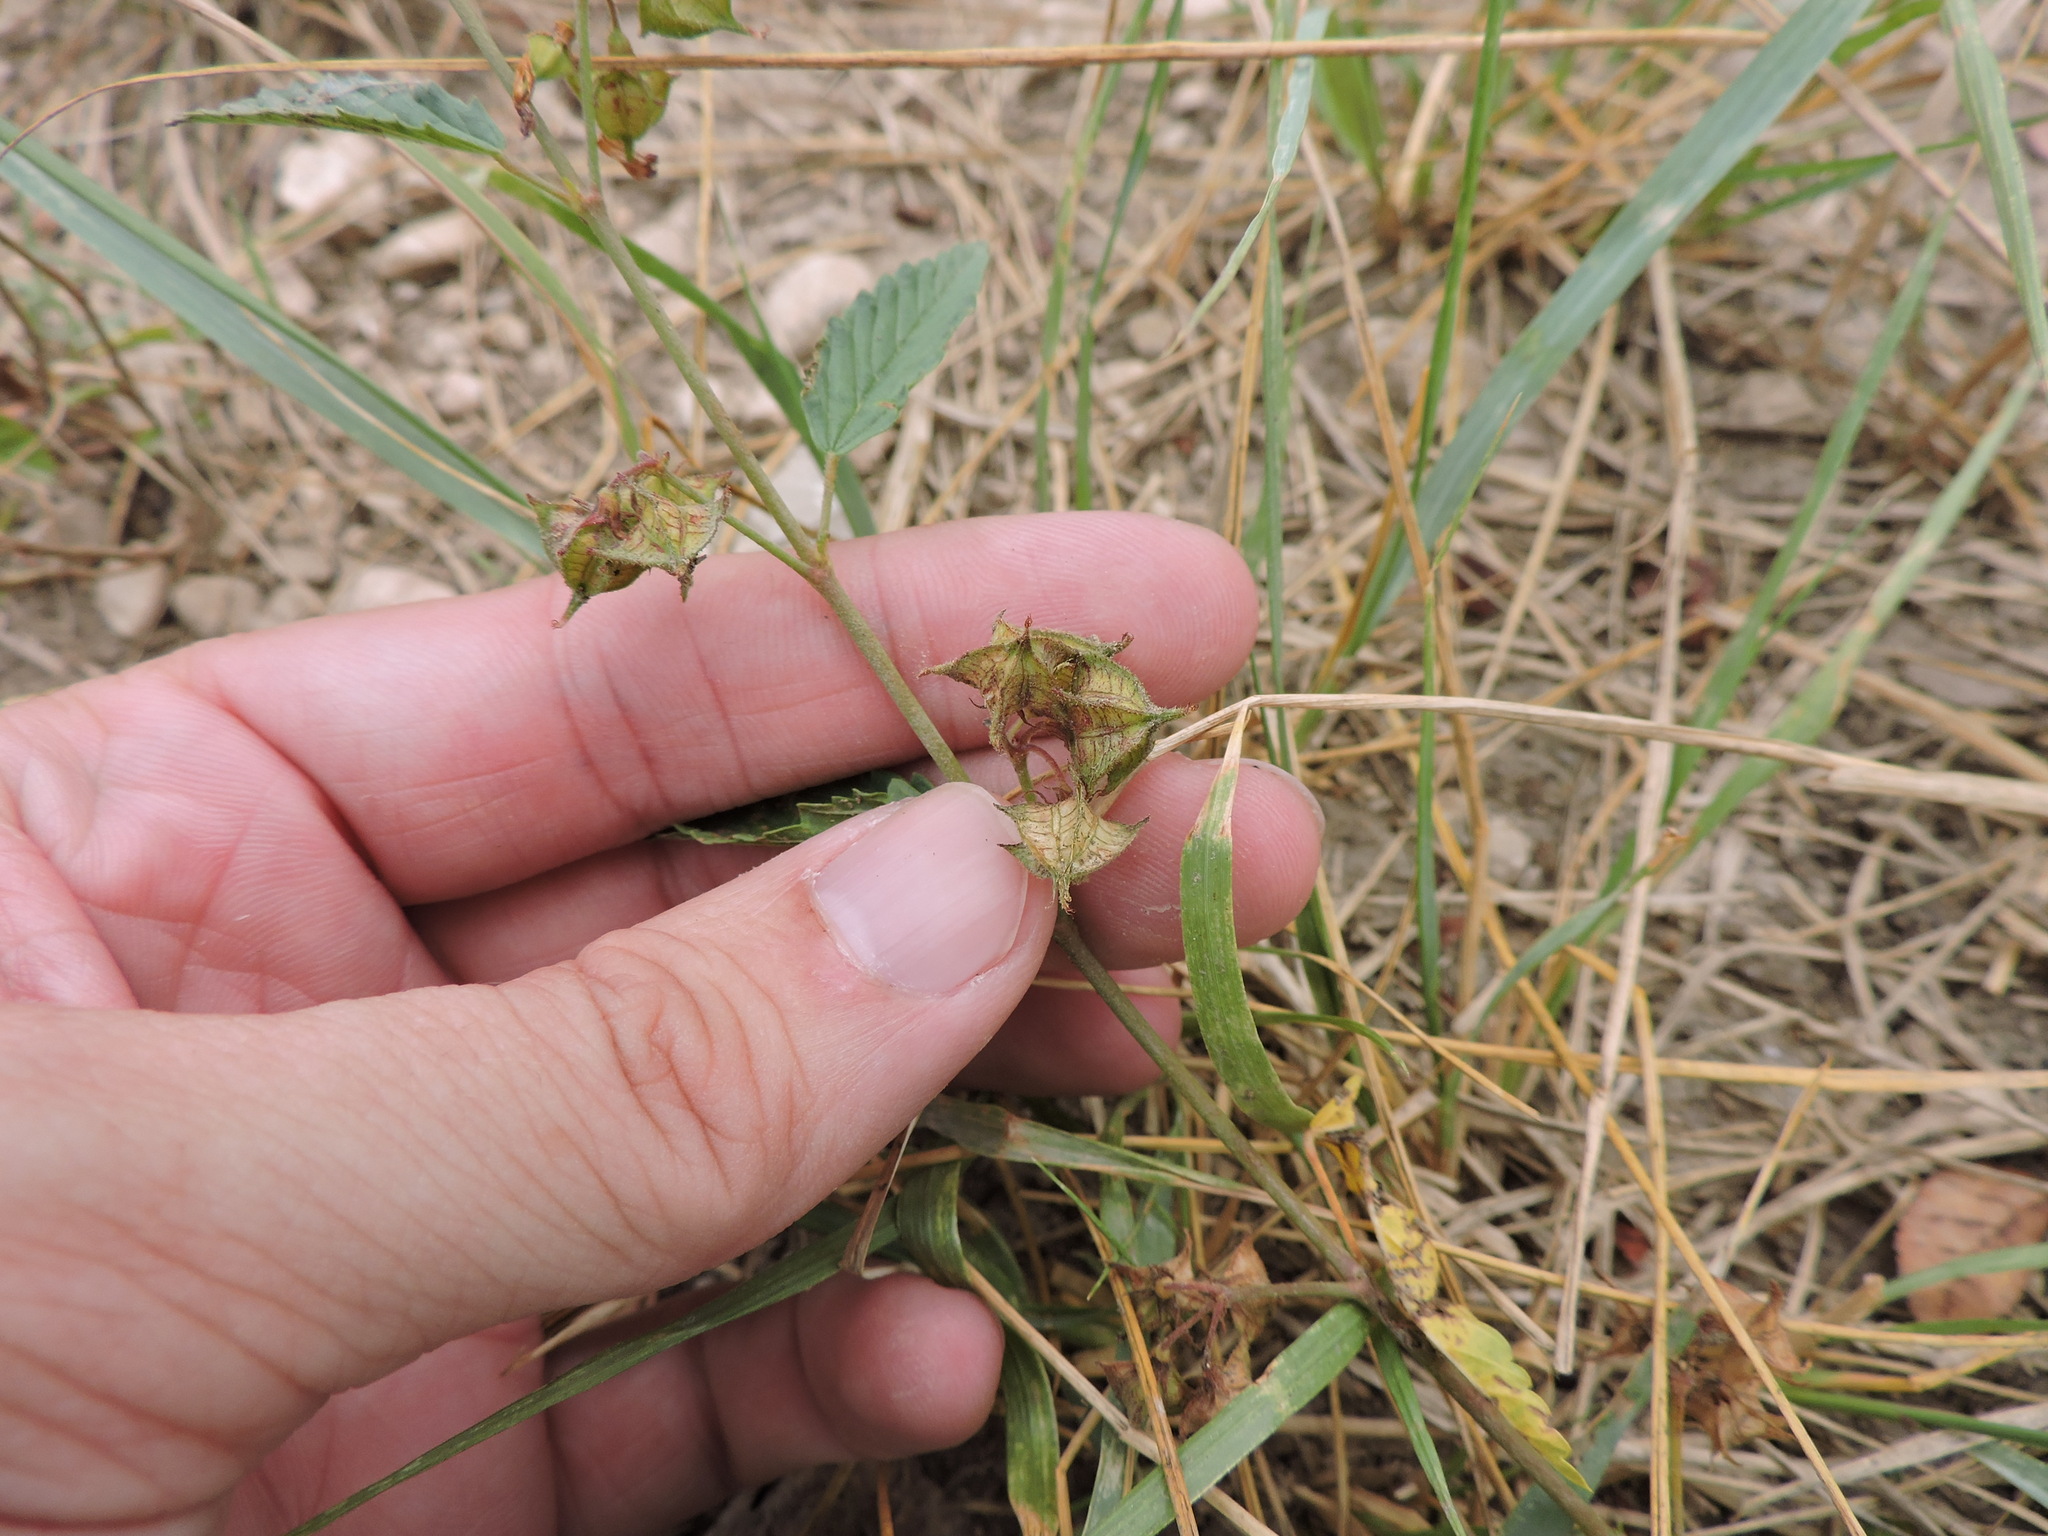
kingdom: Plantae
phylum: Tracheophyta
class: Magnoliopsida
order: Malvales
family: Malvaceae
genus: Melochia
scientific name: Melochia pyramidata
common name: Pyramidflower
